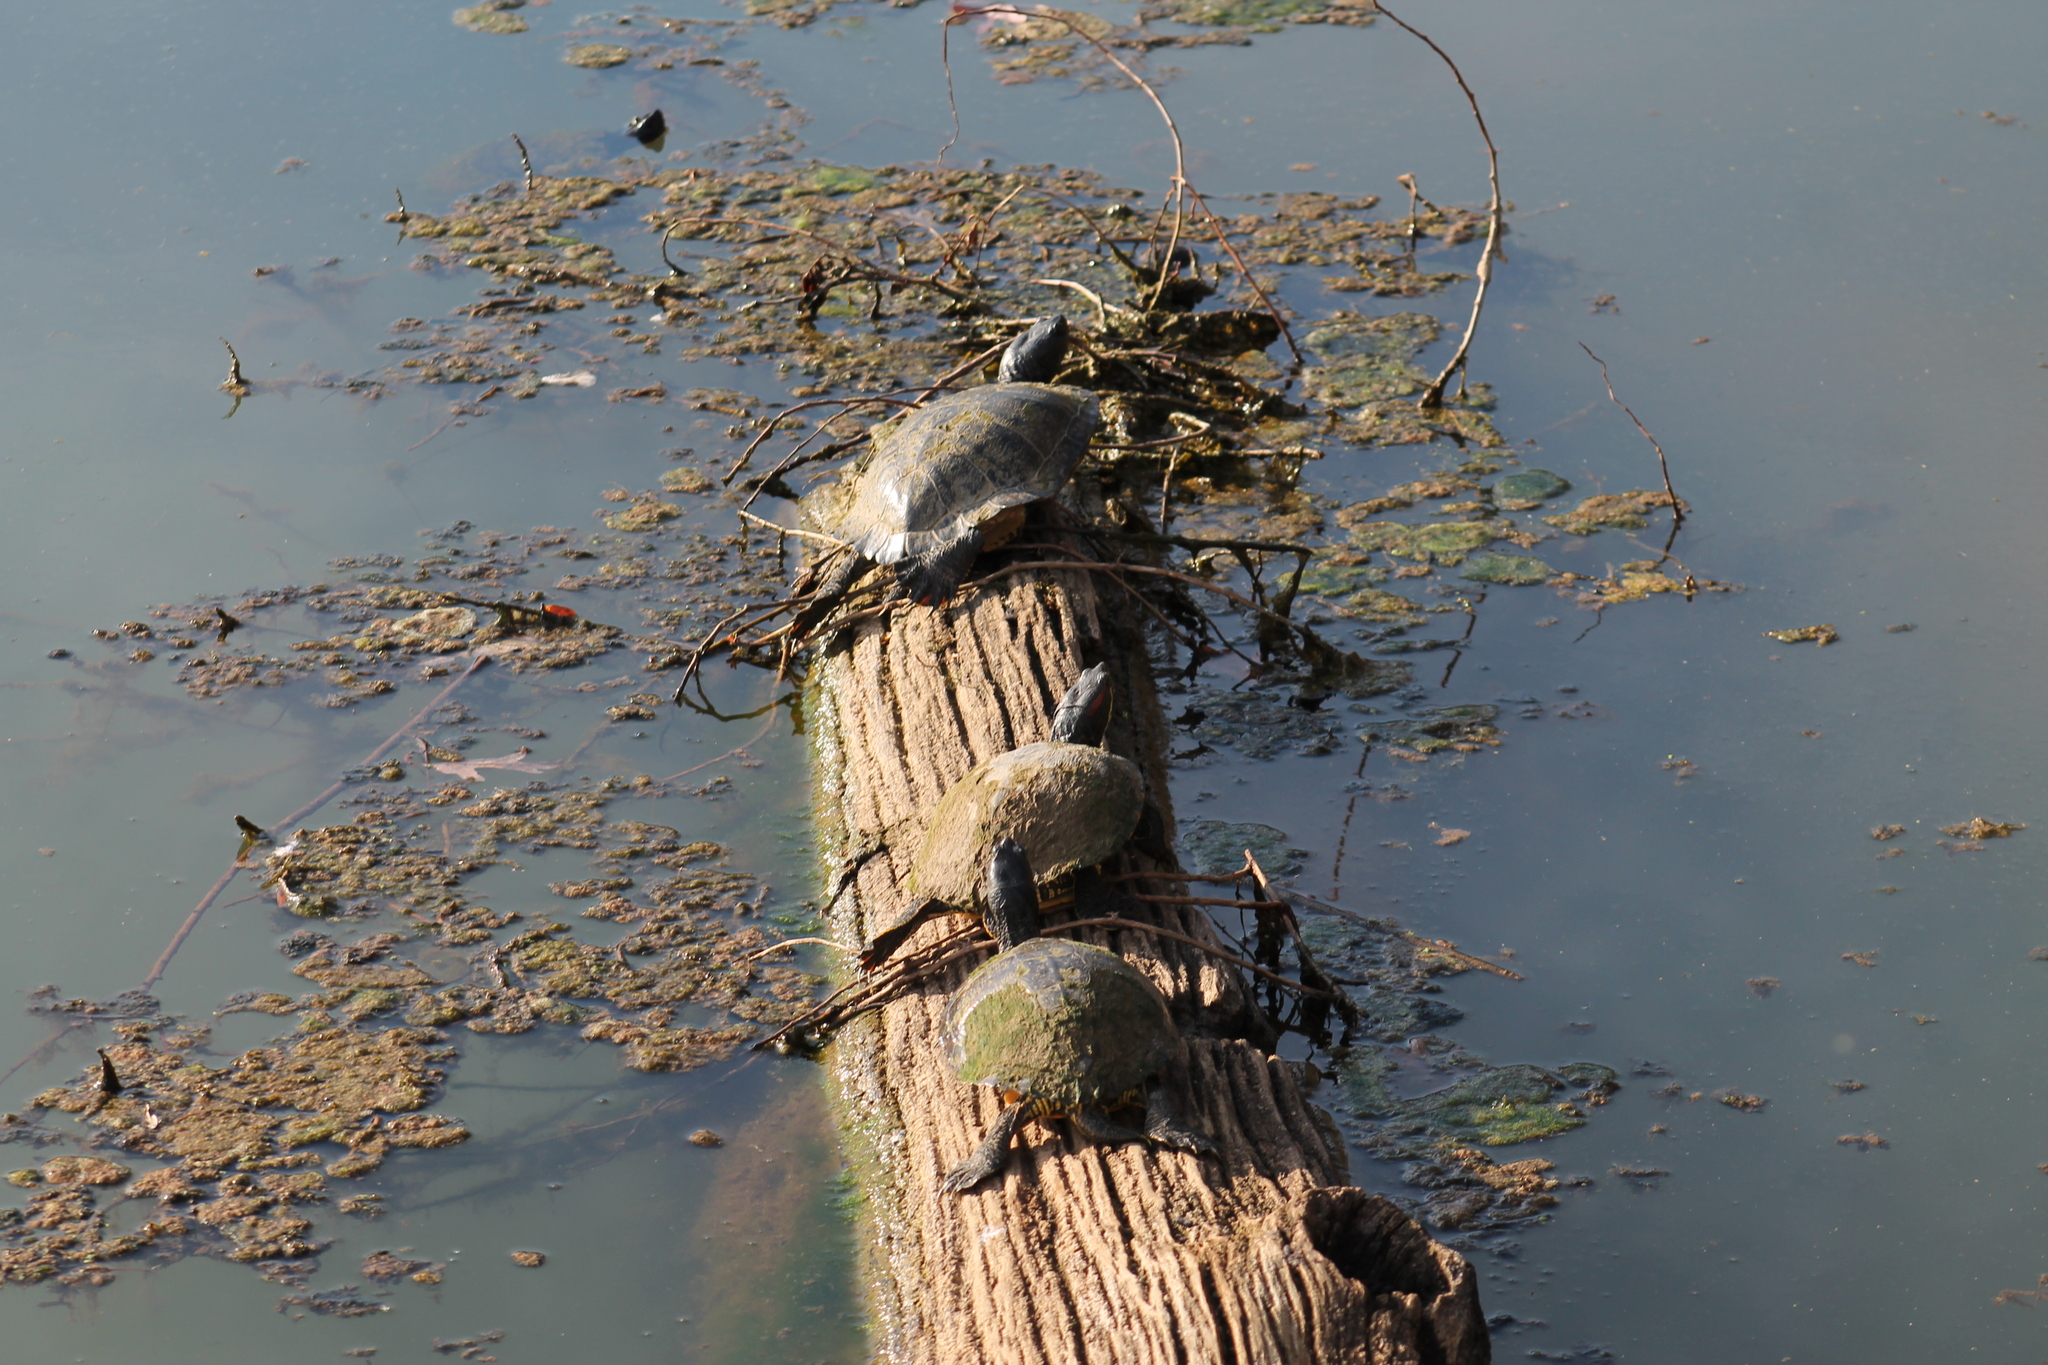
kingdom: Animalia
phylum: Chordata
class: Testudines
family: Emydidae
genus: Trachemys
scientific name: Trachemys scripta
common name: Slider
